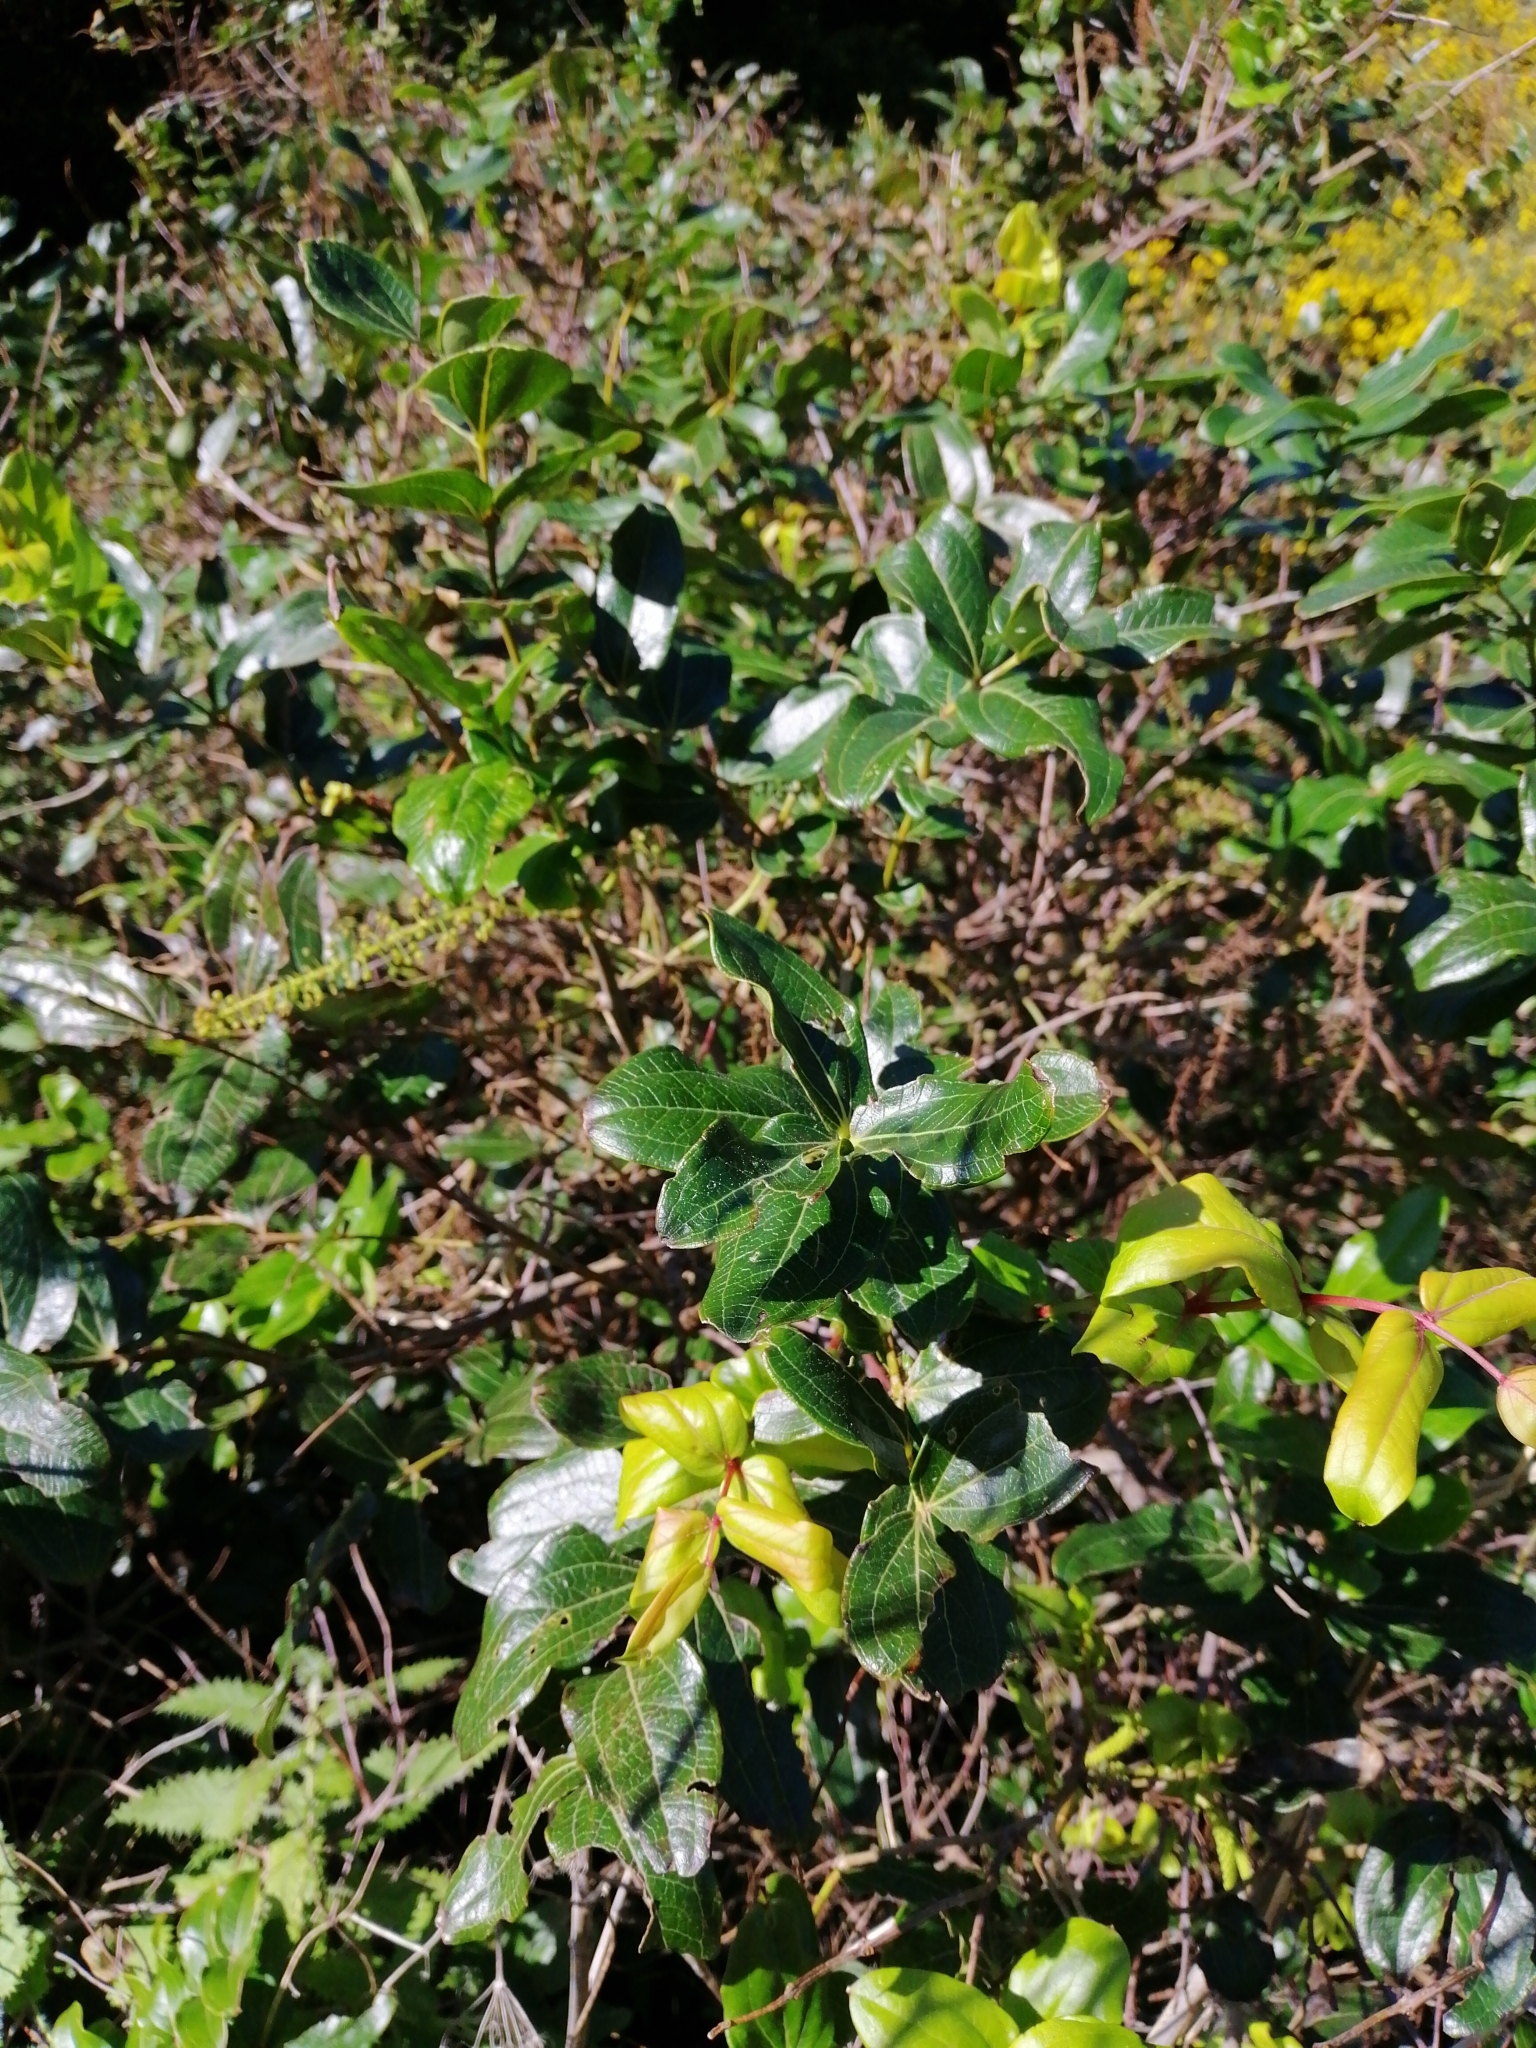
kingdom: Plantae
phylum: Tracheophyta
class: Magnoliopsida
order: Cucurbitales
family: Coriariaceae
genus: Coriaria
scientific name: Coriaria arborea
